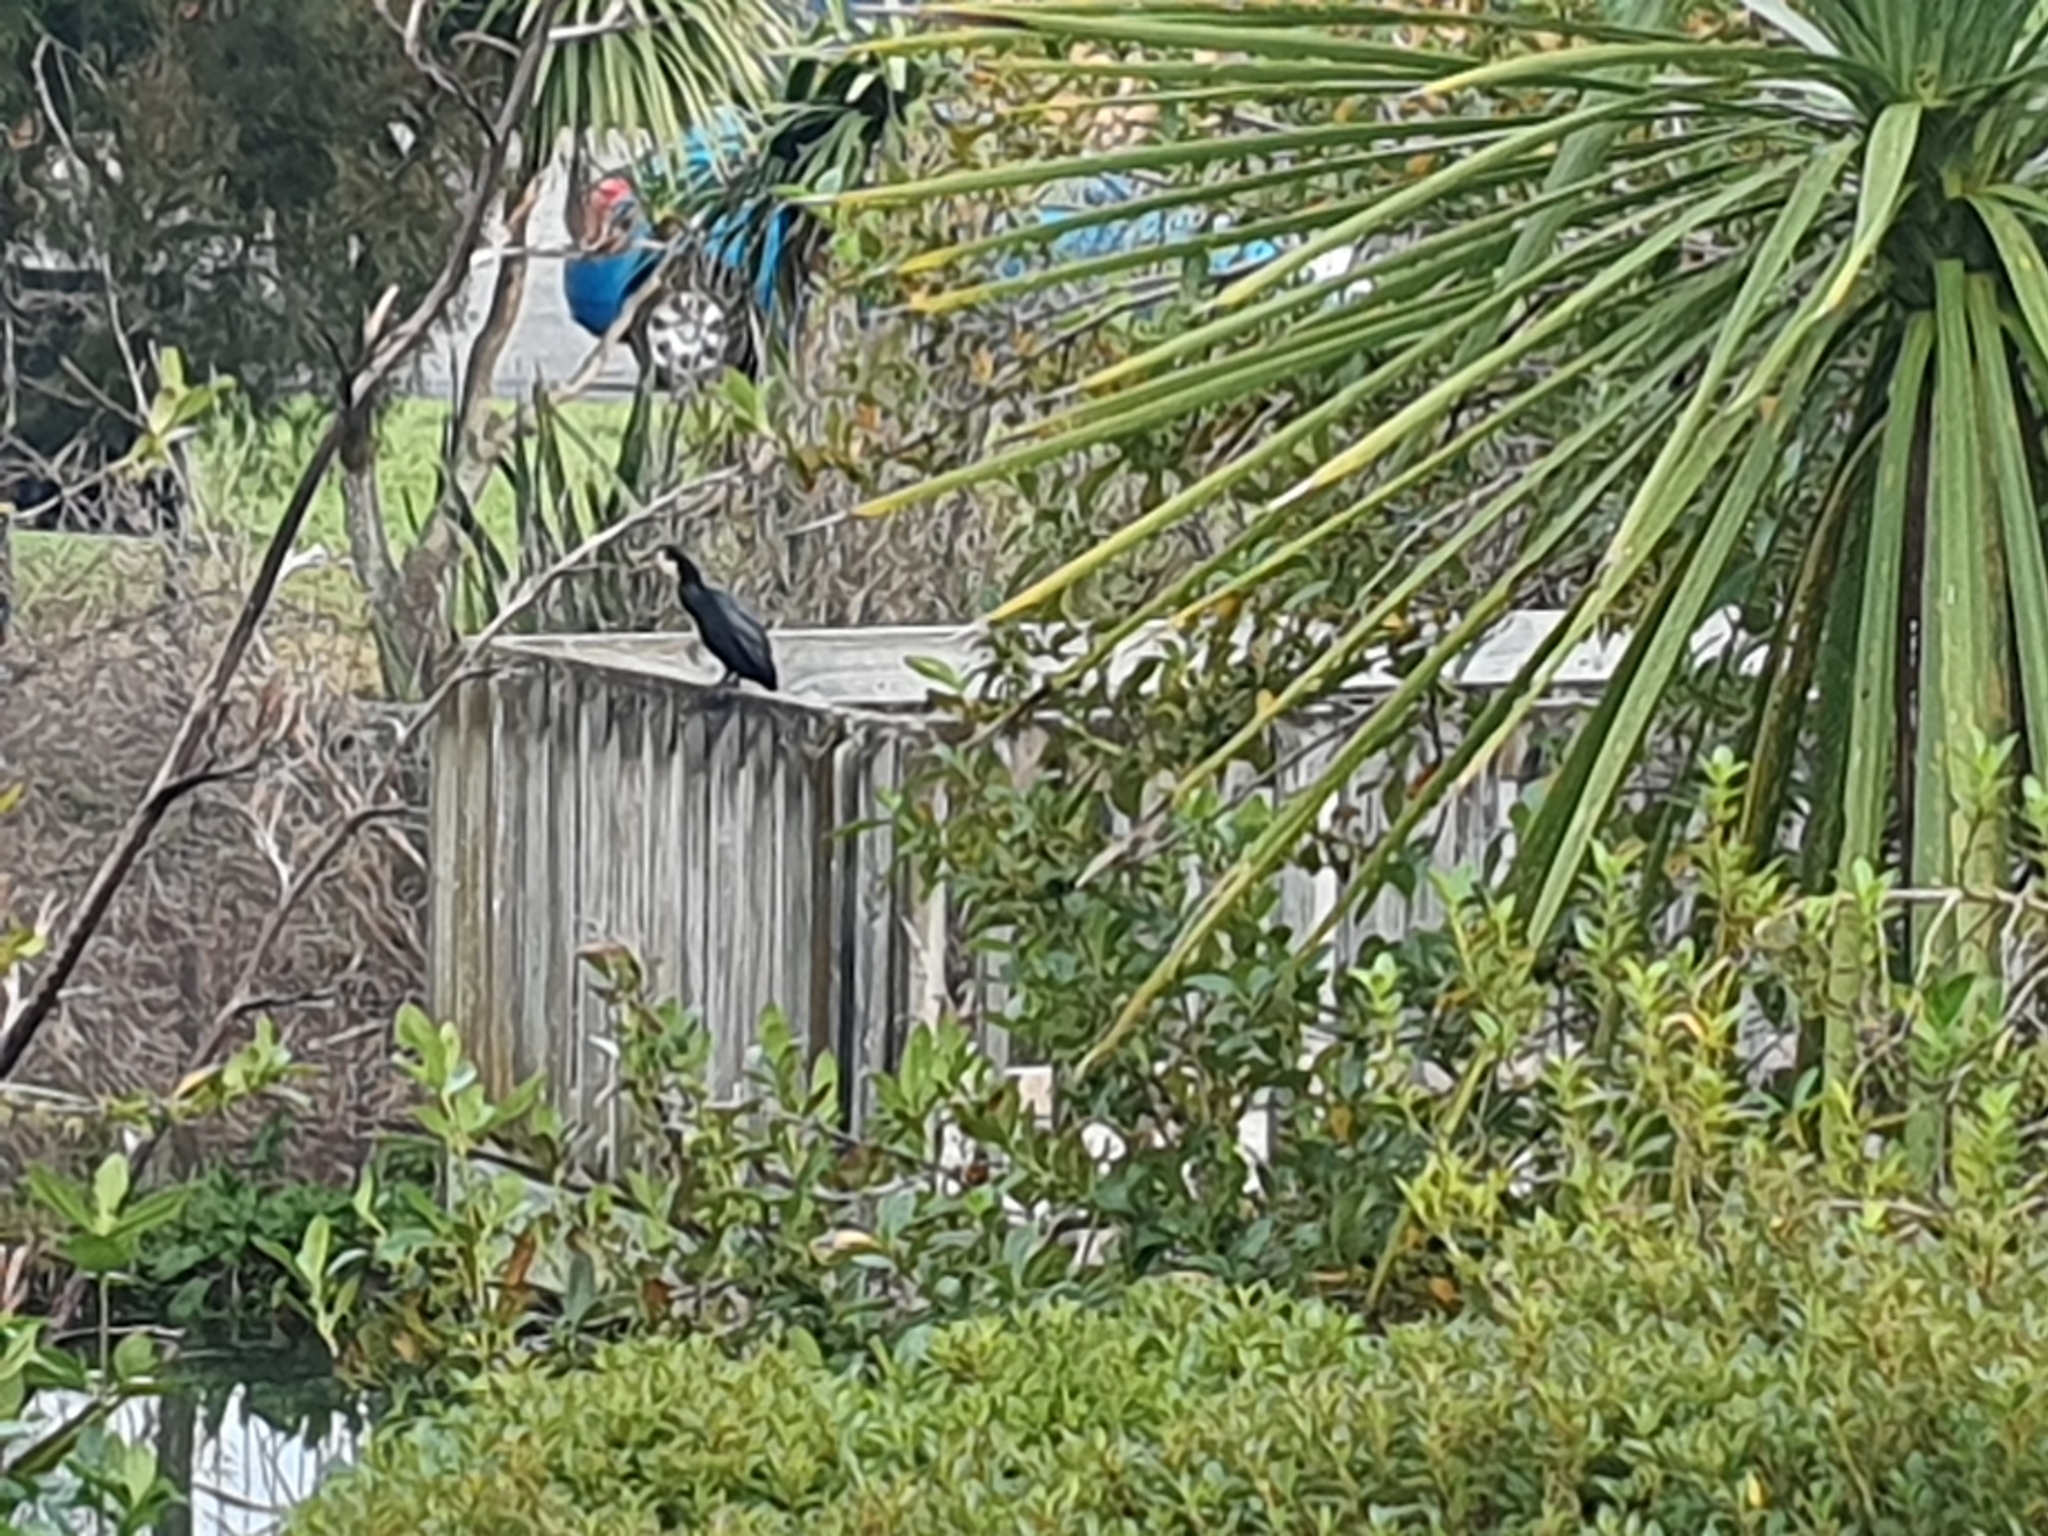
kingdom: Animalia
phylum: Chordata
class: Aves
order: Suliformes
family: Phalacrocoracidae
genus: Microcarbo
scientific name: Microcarbo melanoleucos
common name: Little pied cormorant
